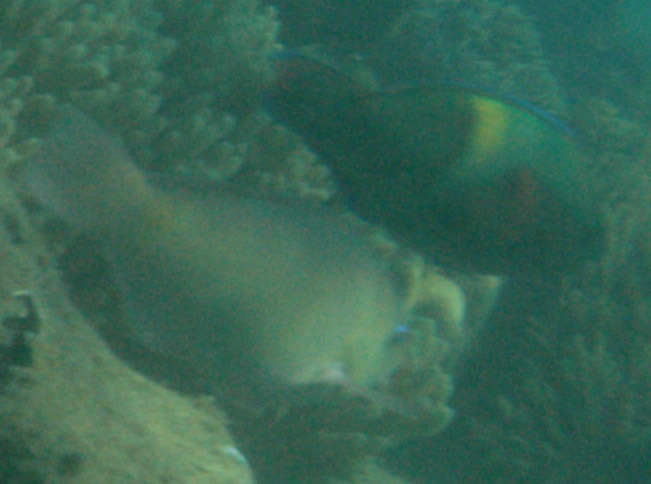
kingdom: Animalia
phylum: Chordata
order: Perciformes
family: Scaridae
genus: Scarus
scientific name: Scarus schlegeli
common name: Schlegel's parrotfish
